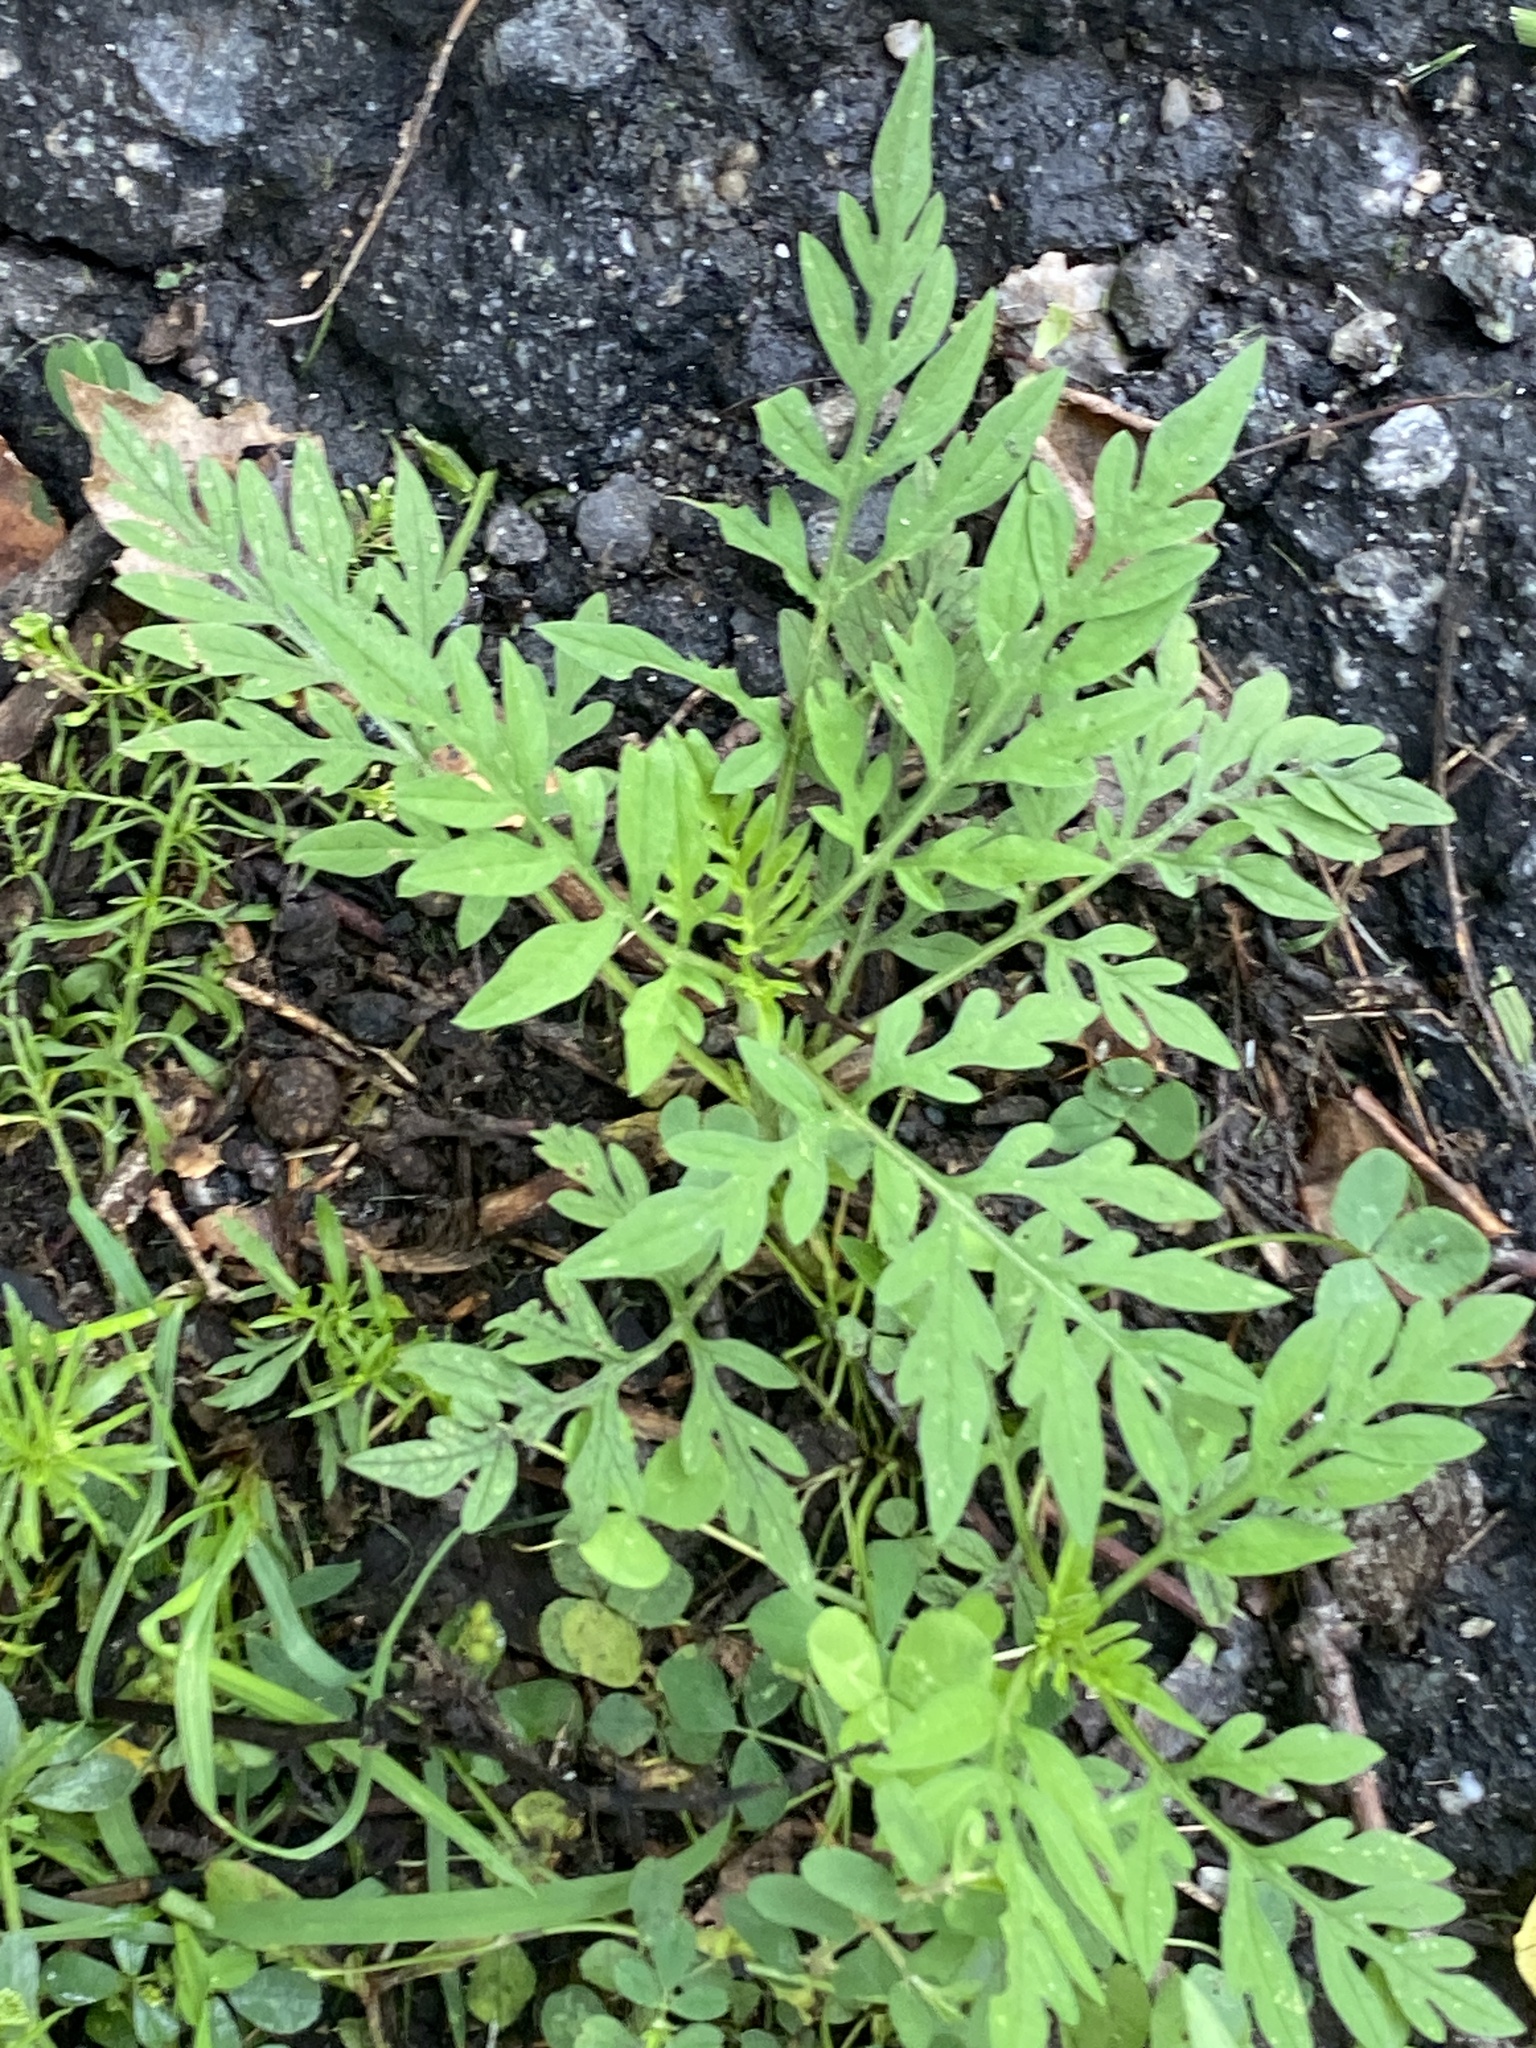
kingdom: Plantae
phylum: Tracheophyta
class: Magnoliopsida
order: Asterales
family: Asteraceae
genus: Ambrosia
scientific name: Ambrosia artemisiifolia
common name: Annual ragweed
